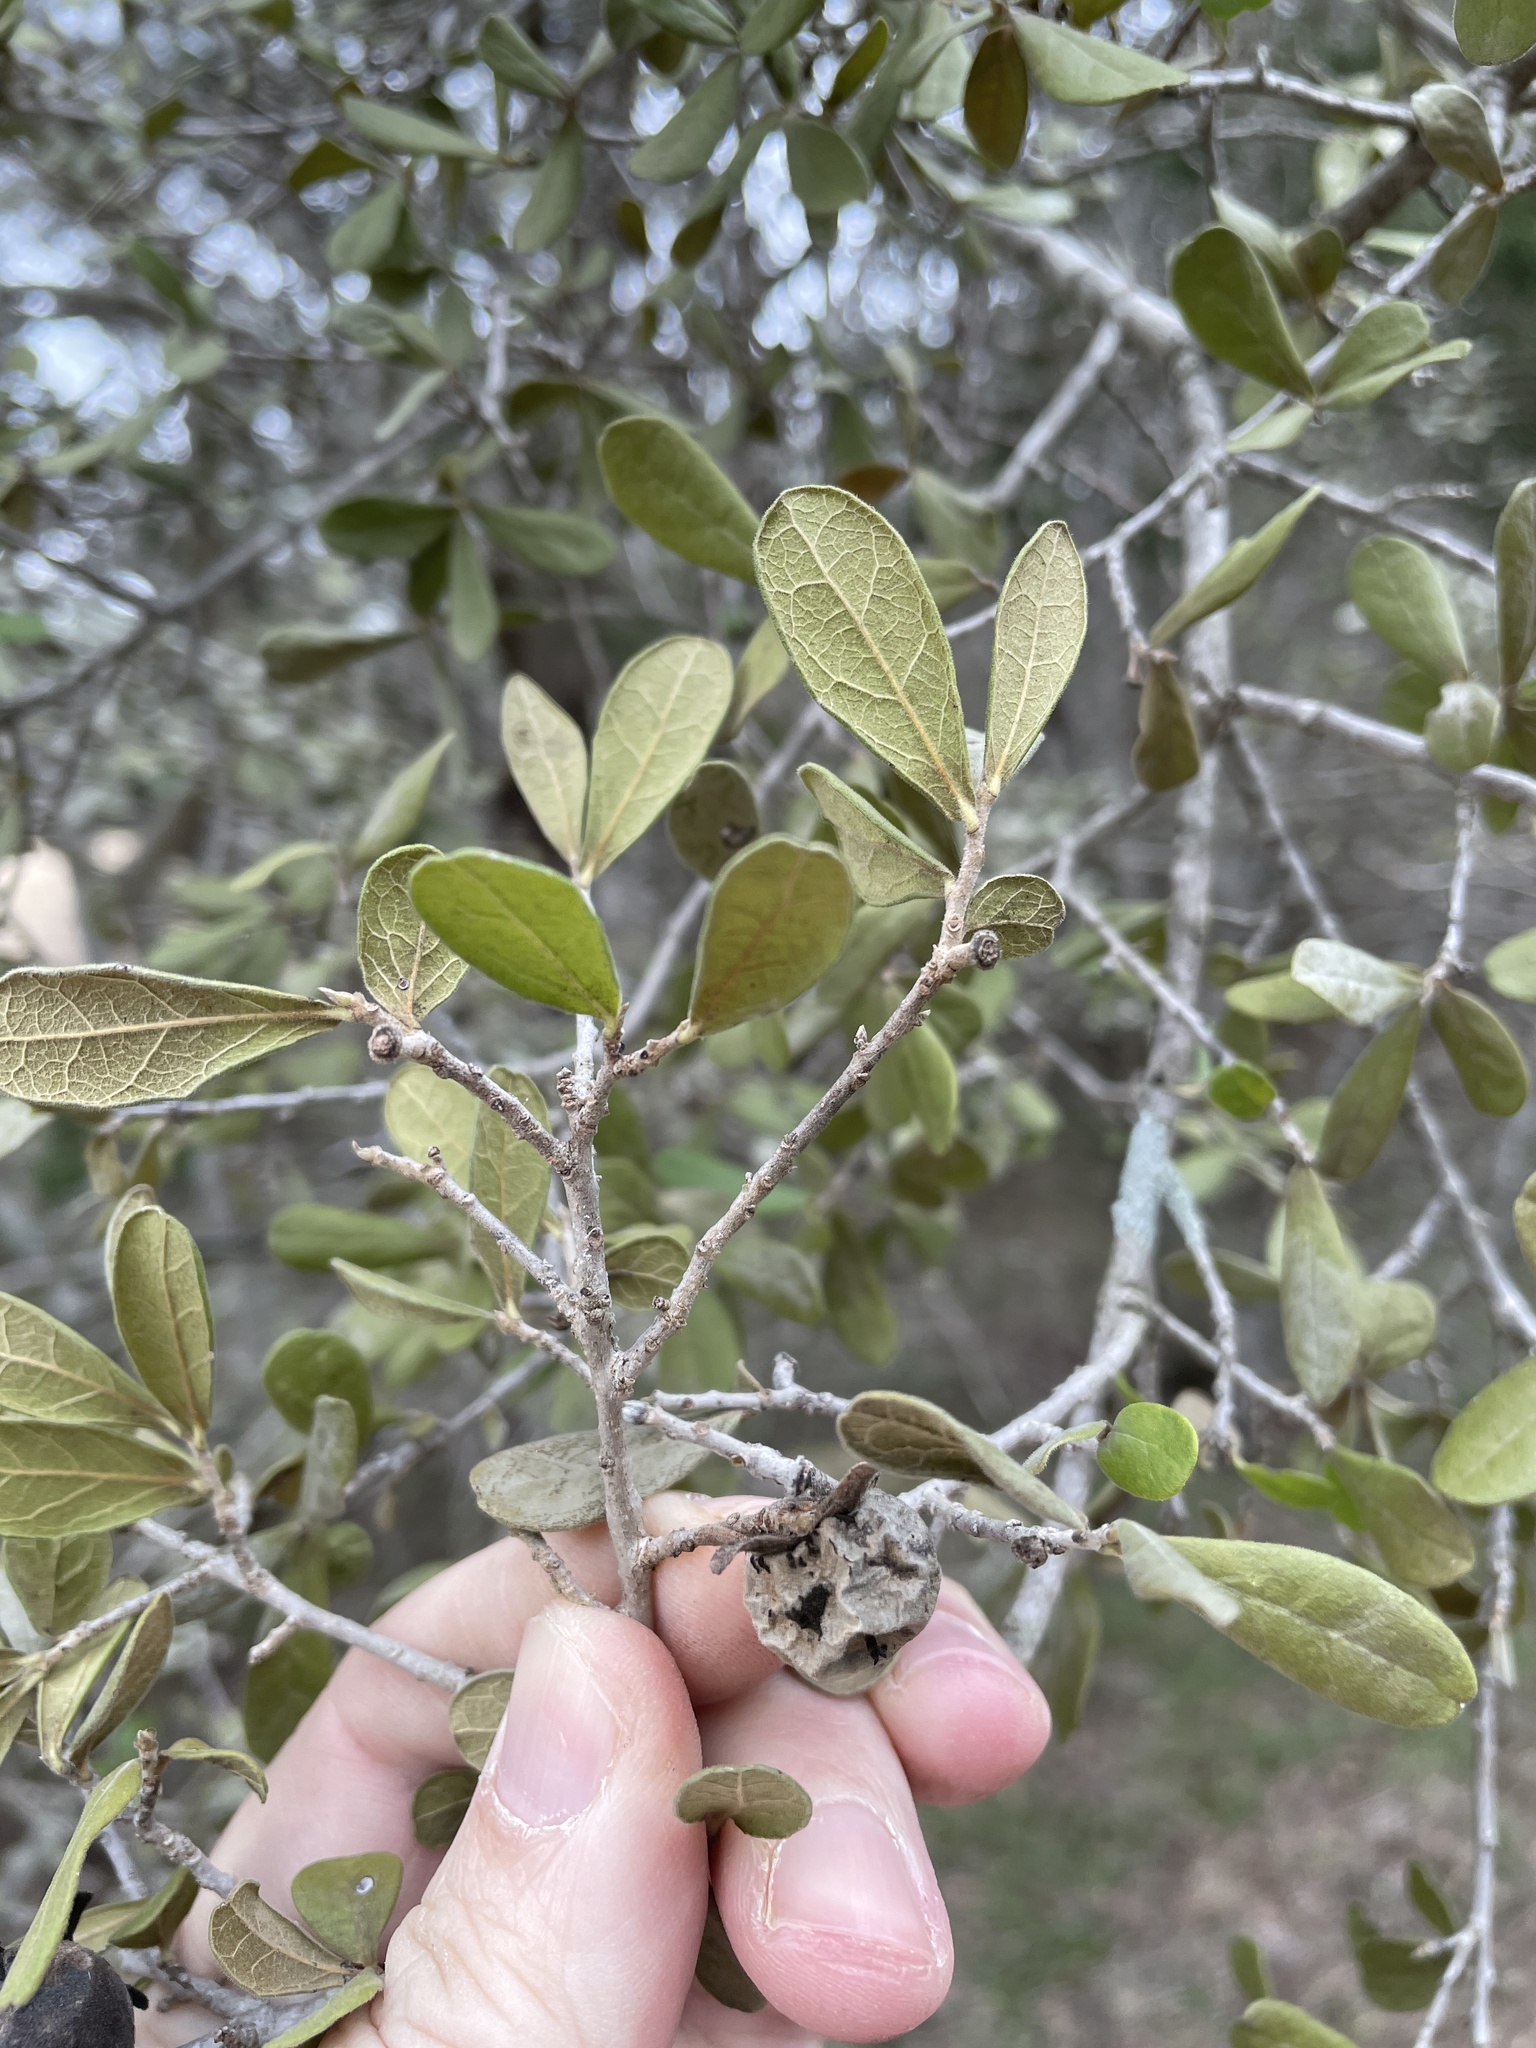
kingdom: Plantae
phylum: Tracheophyta
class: Magnoliopsida
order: Ericales
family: Ebenaceae
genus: Diospyros
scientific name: Diospyros texana
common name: Texas persimmon
